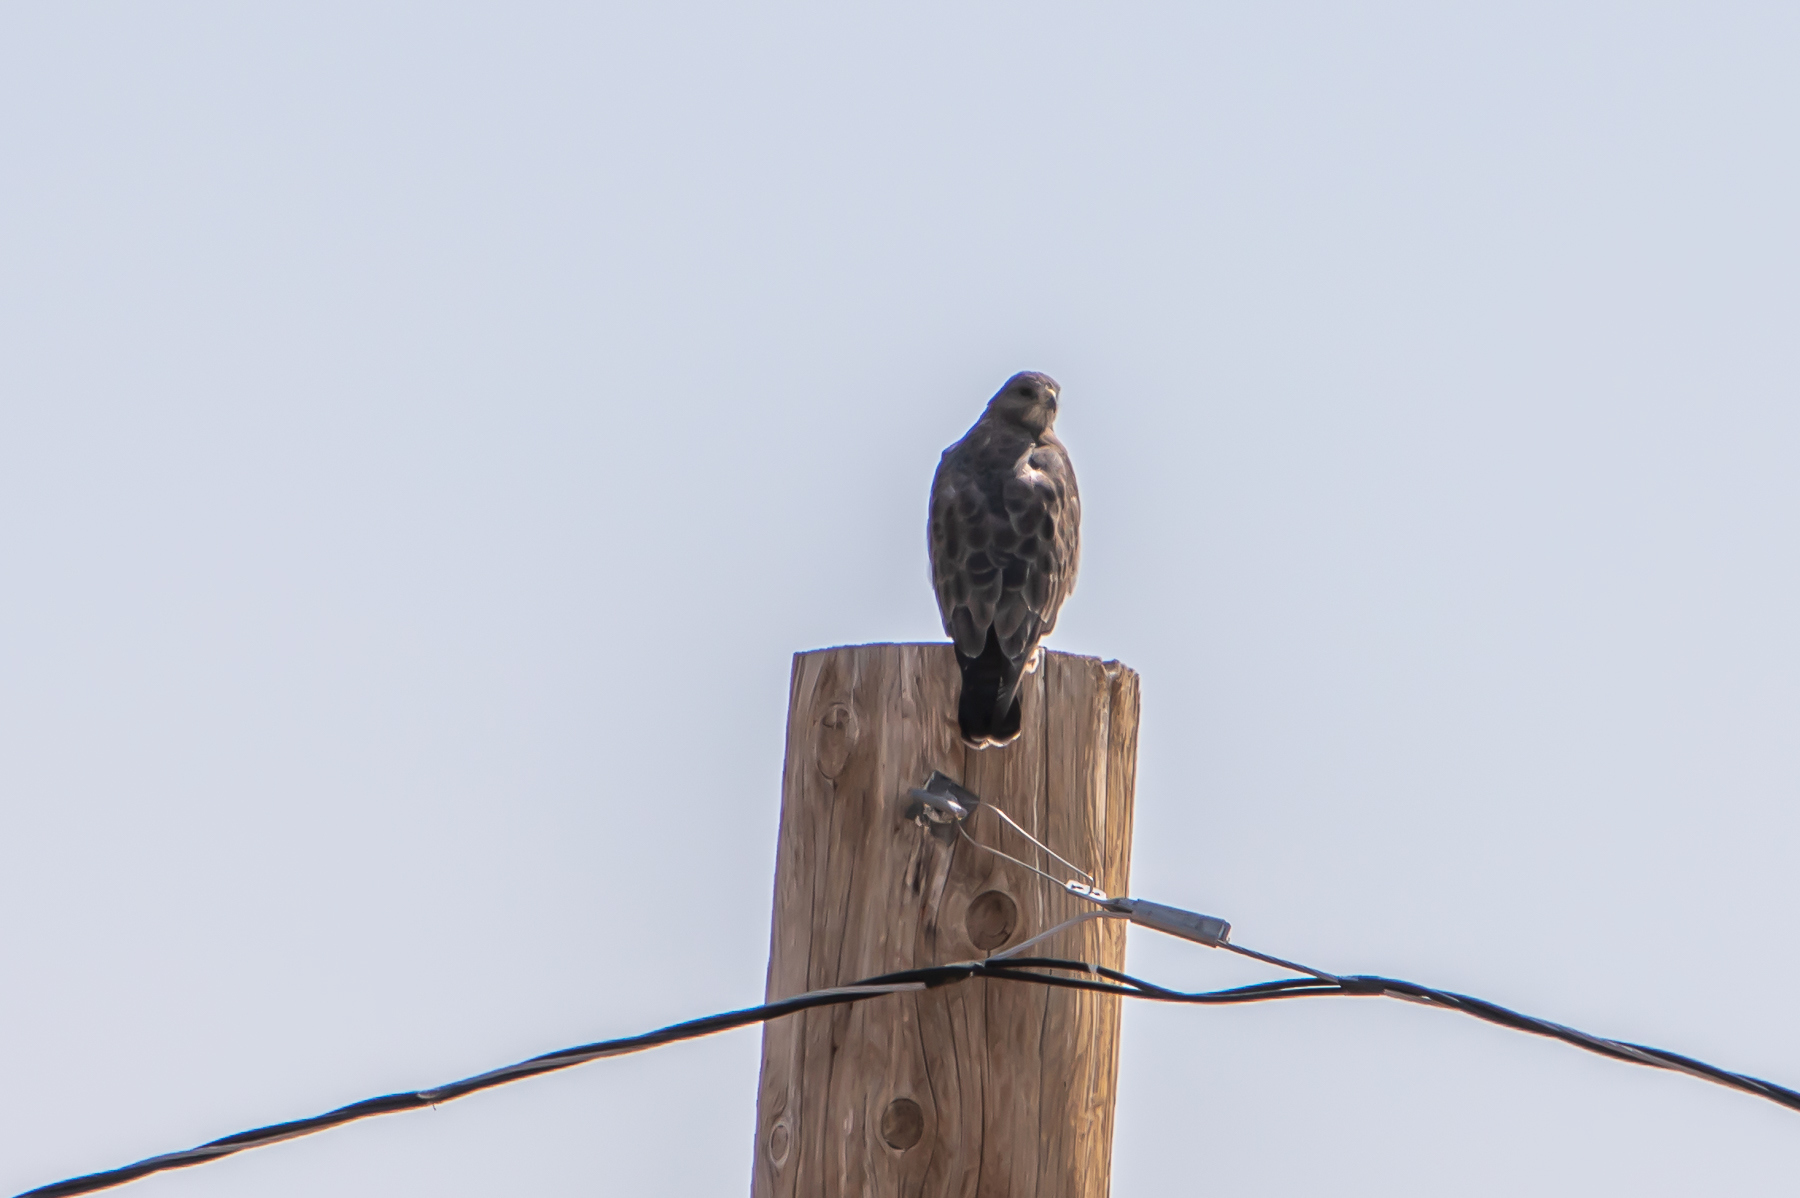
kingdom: Animalia
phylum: Chordata
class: Aves
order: Accipitriformes
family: Accipitridae
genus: Buteo
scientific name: Buteo swainsoni
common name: Swainson's hawk
